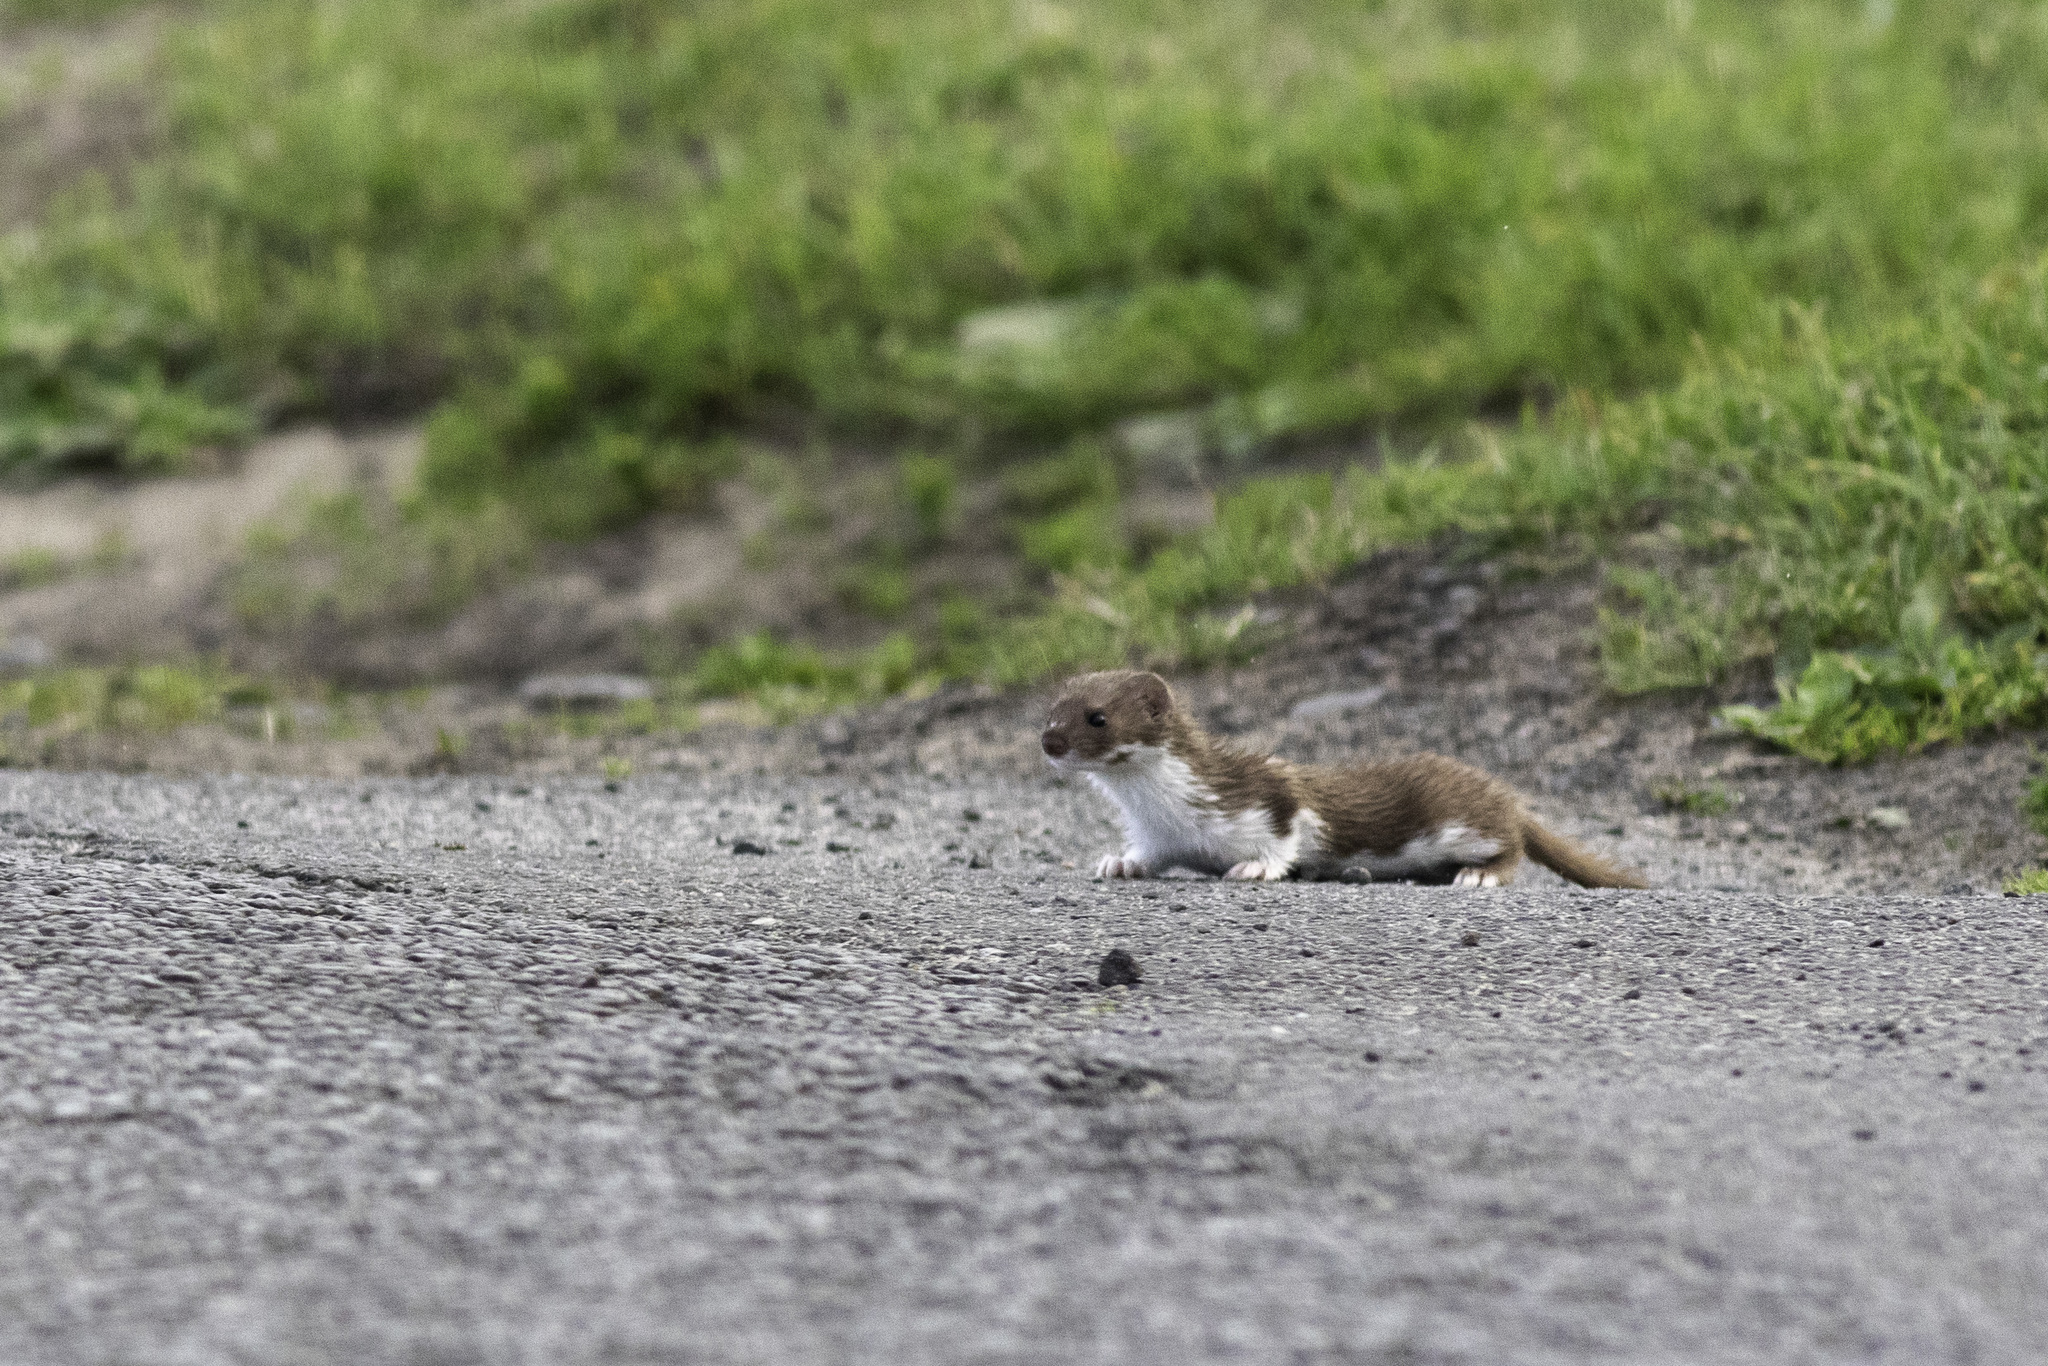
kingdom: Animalia
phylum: Chordata
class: Mammalia
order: Carnivora
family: Mustelidae
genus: Mustela
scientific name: Mustela nivalis
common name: Least weasel
